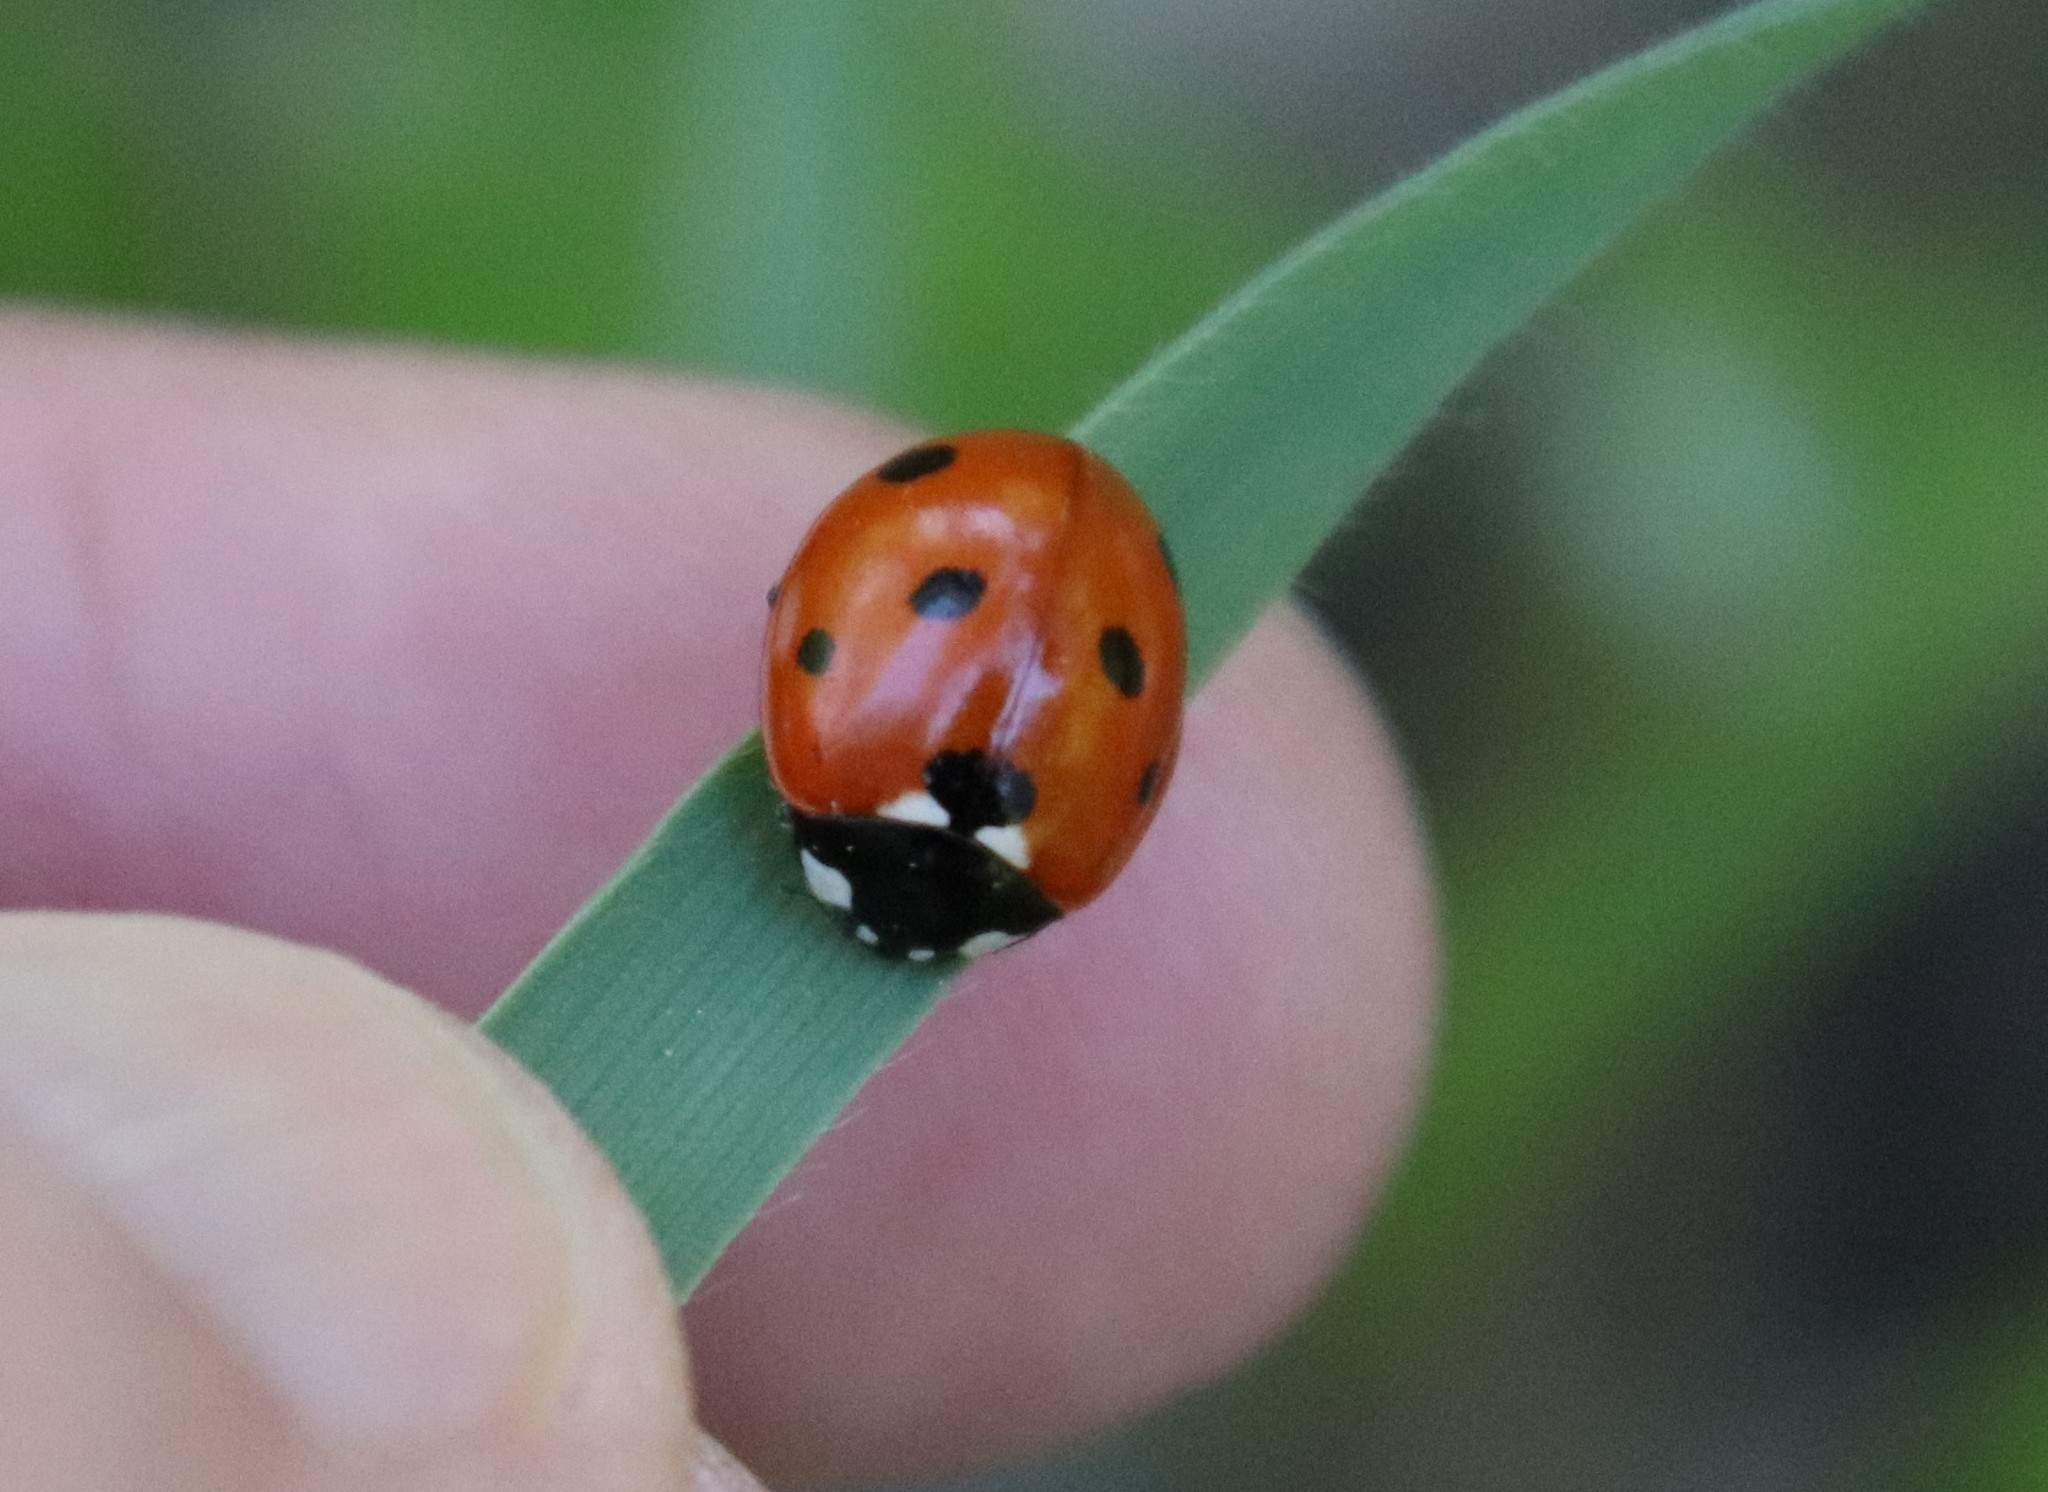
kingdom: Animalia
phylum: Arthropoda
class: Insecta
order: Coleoptera
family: Coccinellidae
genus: Coccinella
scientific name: Coccinella septempunctata
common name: Sevenspotted lady beetle
